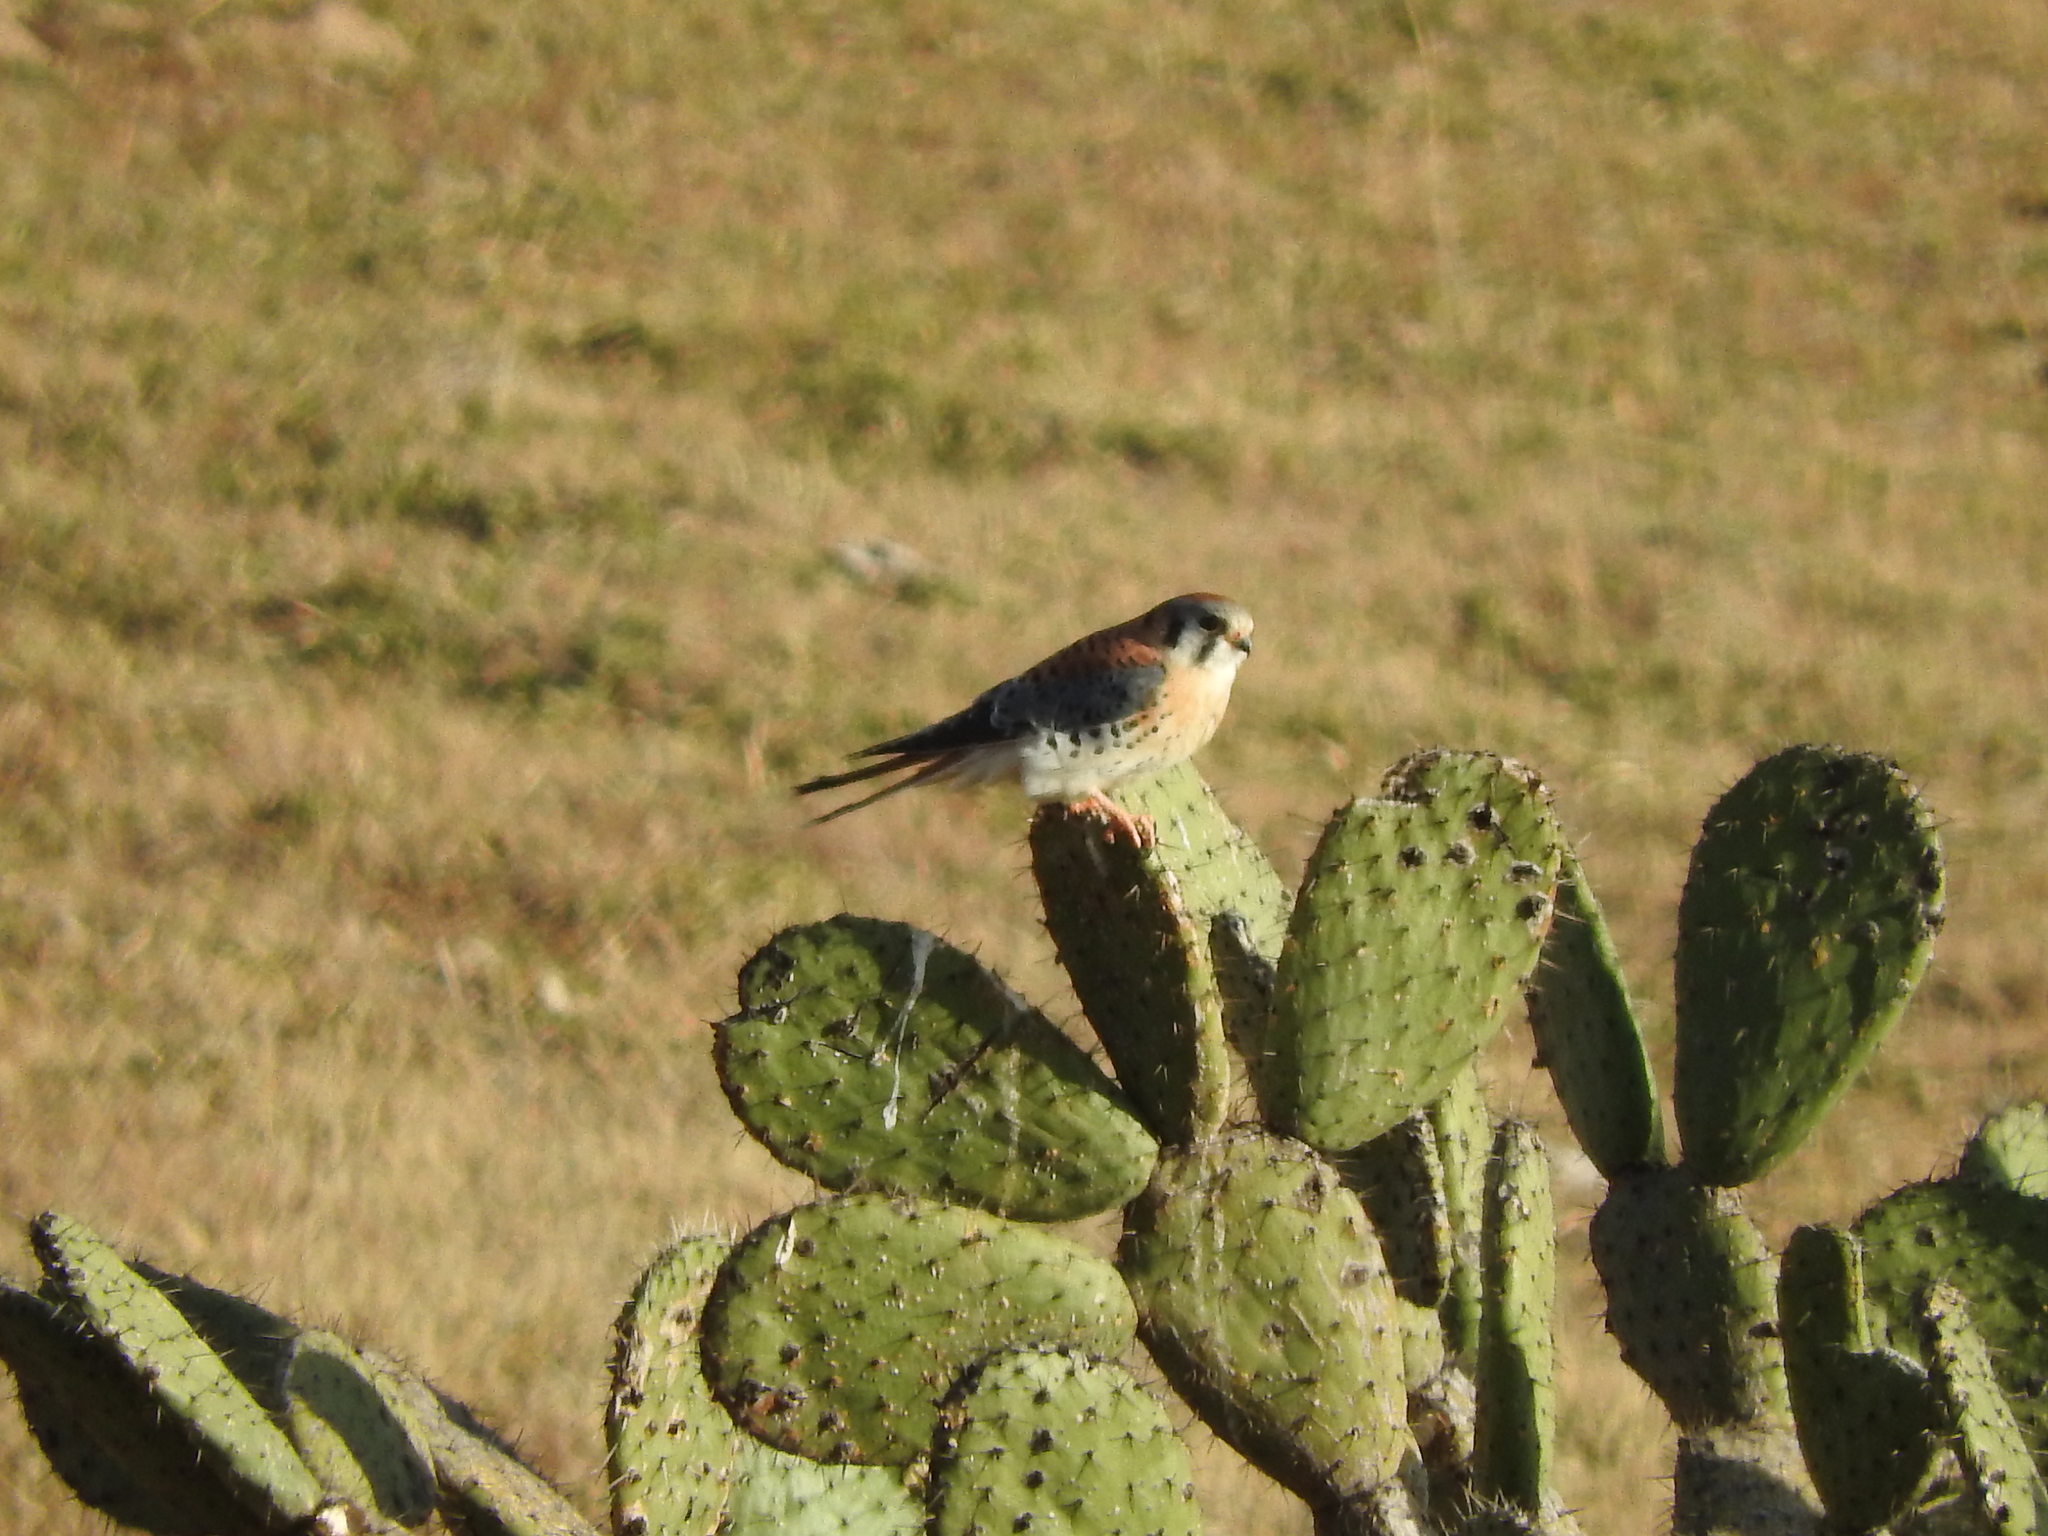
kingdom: Animalia
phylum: Chordata
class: Aves
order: Falconiformes
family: Falconidae
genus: Falco
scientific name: Falco sparverius
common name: American kestrel
